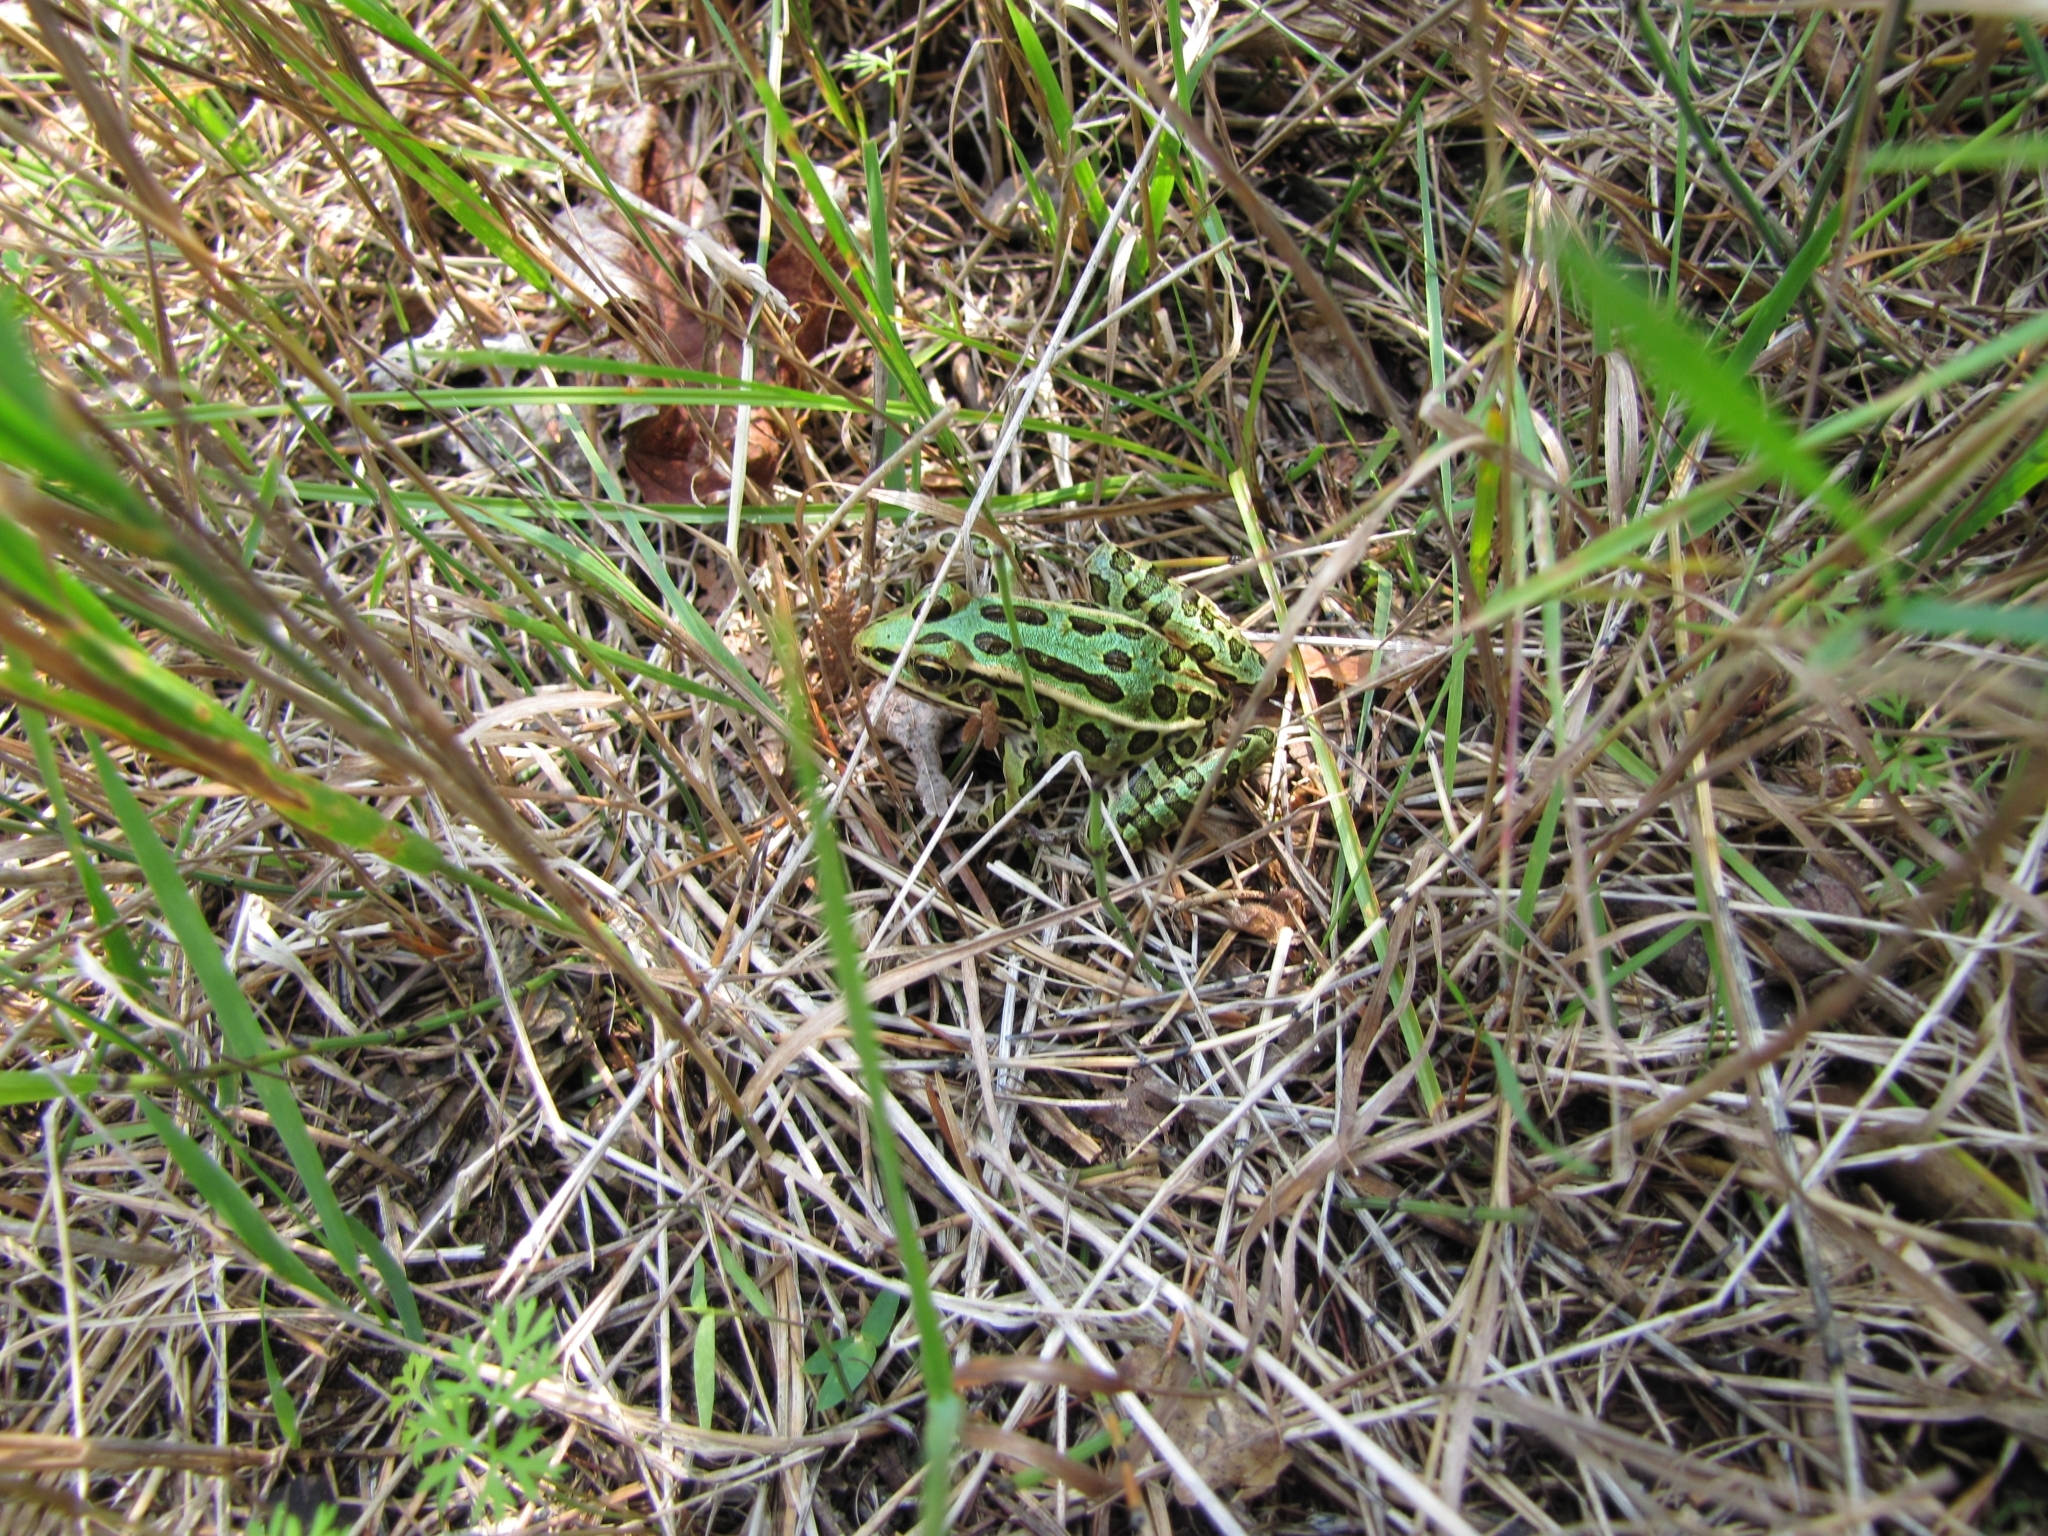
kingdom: Animalia
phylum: Chordata
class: Amphibia
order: Anura
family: Ranidae
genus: Lithobates
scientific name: Lithobates pipiens
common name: Northern leopard frog
